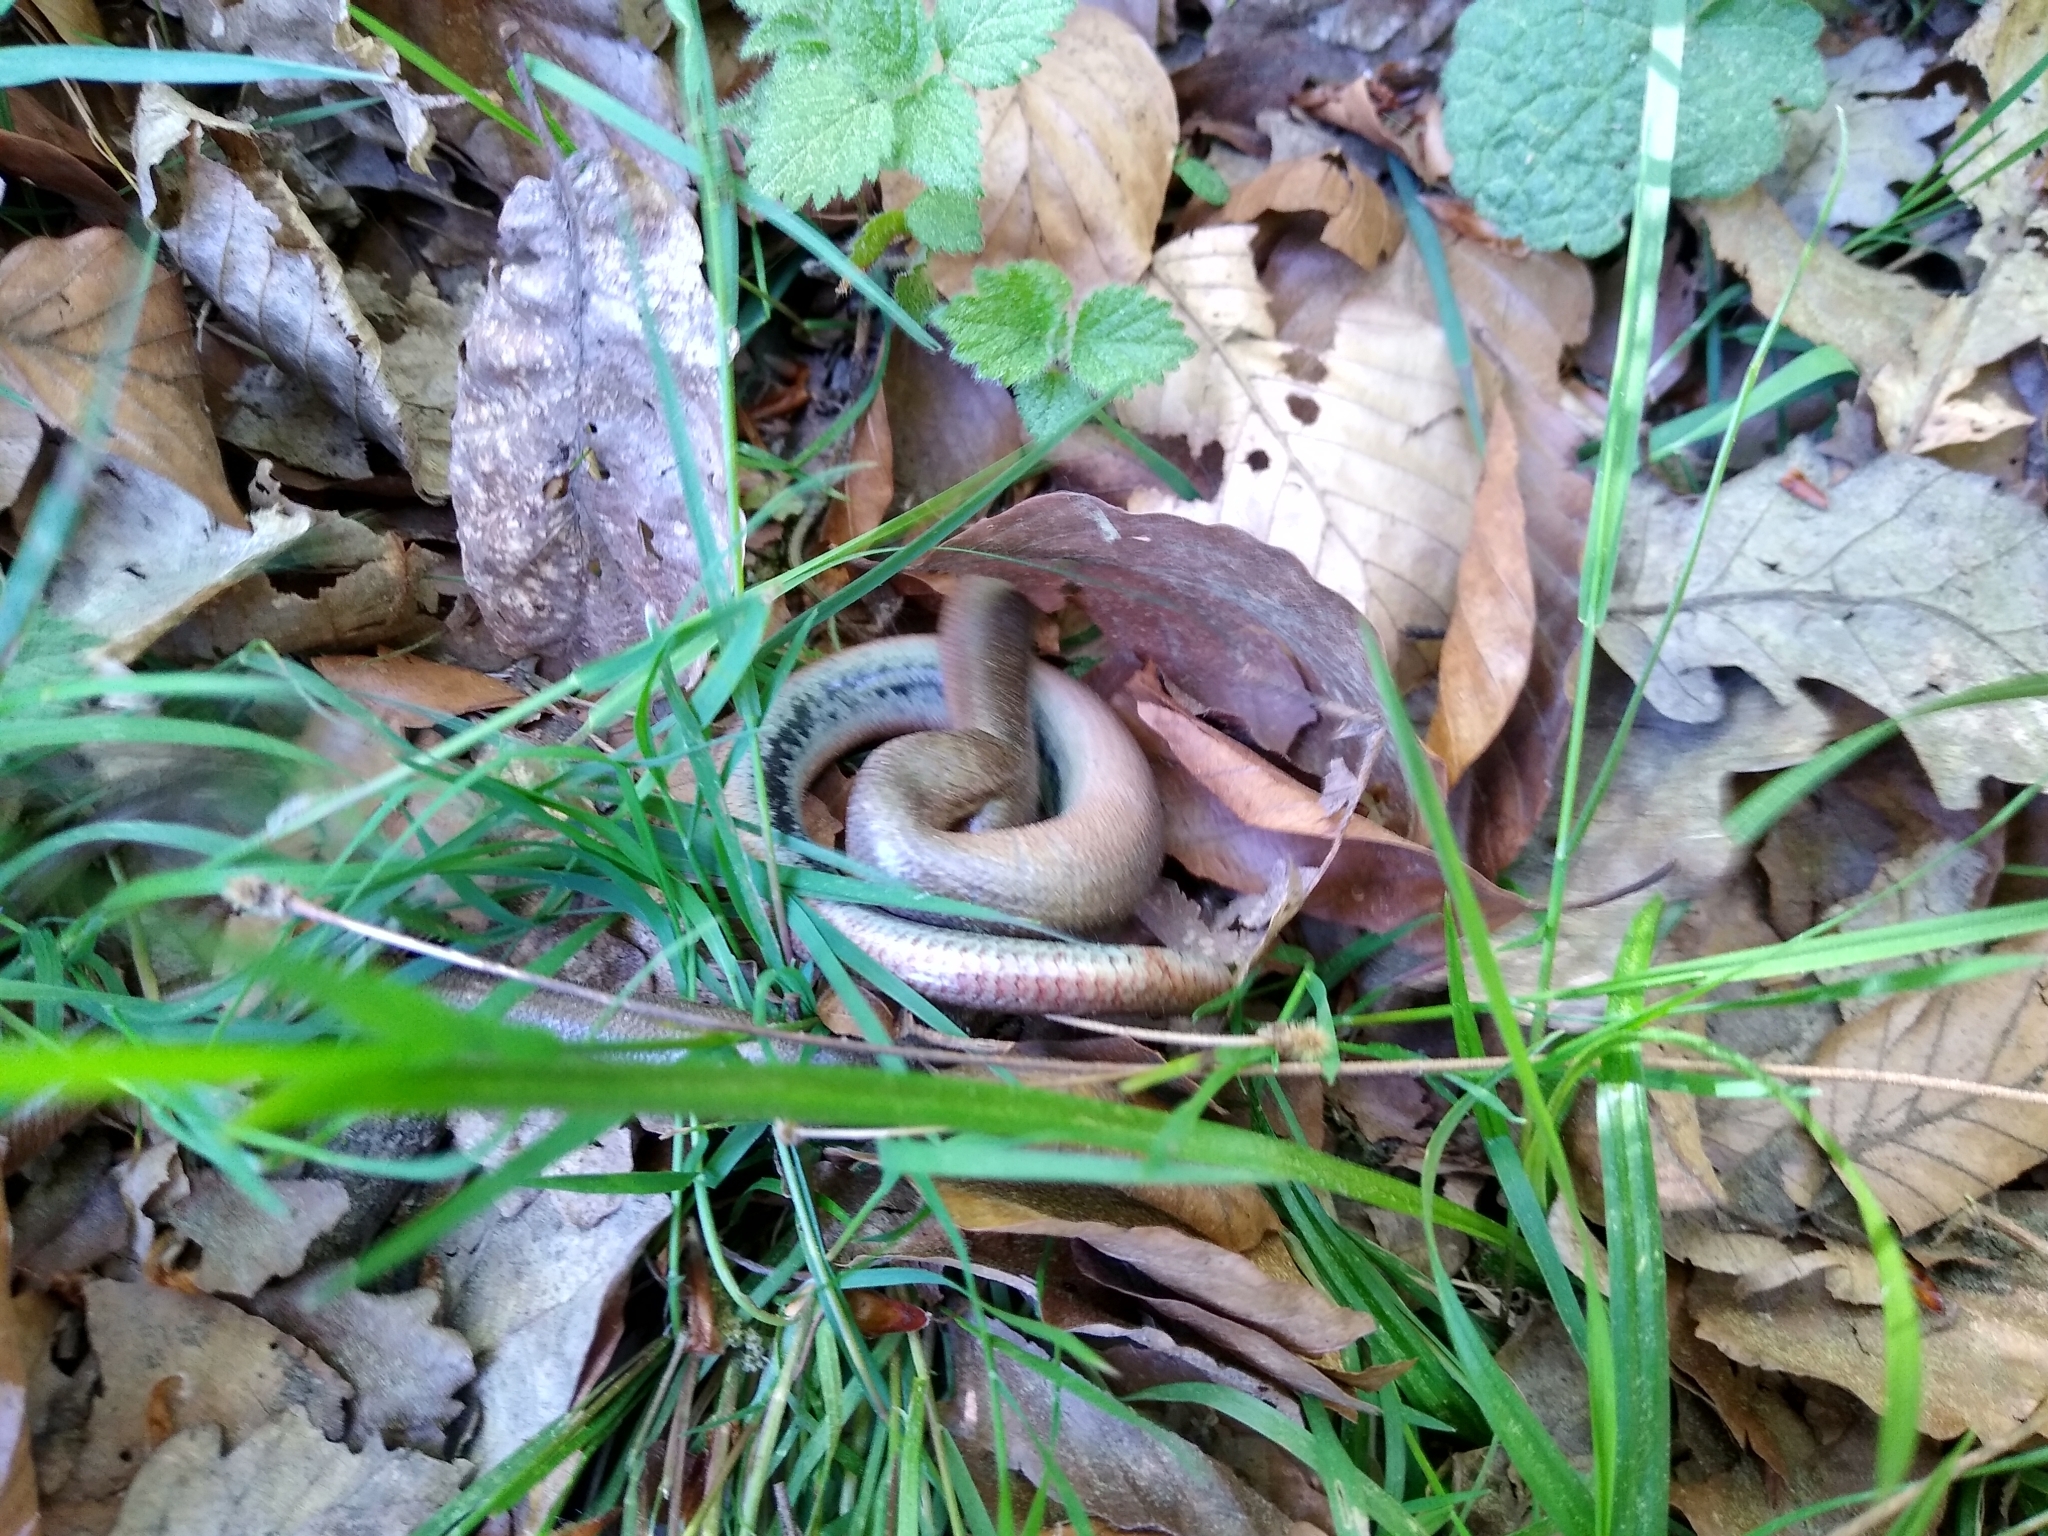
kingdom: Animalia
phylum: Chordata
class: Squamata
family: Anguidae
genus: Anguis
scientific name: Anguis fragilis
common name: Slow worm
